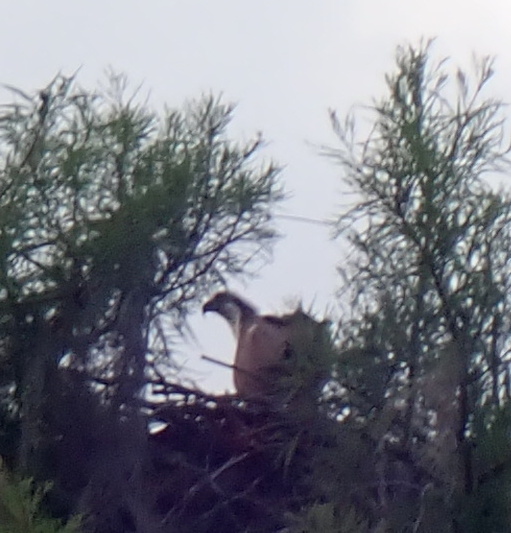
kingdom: Animalia
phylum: Chordata
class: Aves
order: Accipitriformes
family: Pandionidae
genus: Pandion
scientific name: Pandion haliaetus
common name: Osprey
